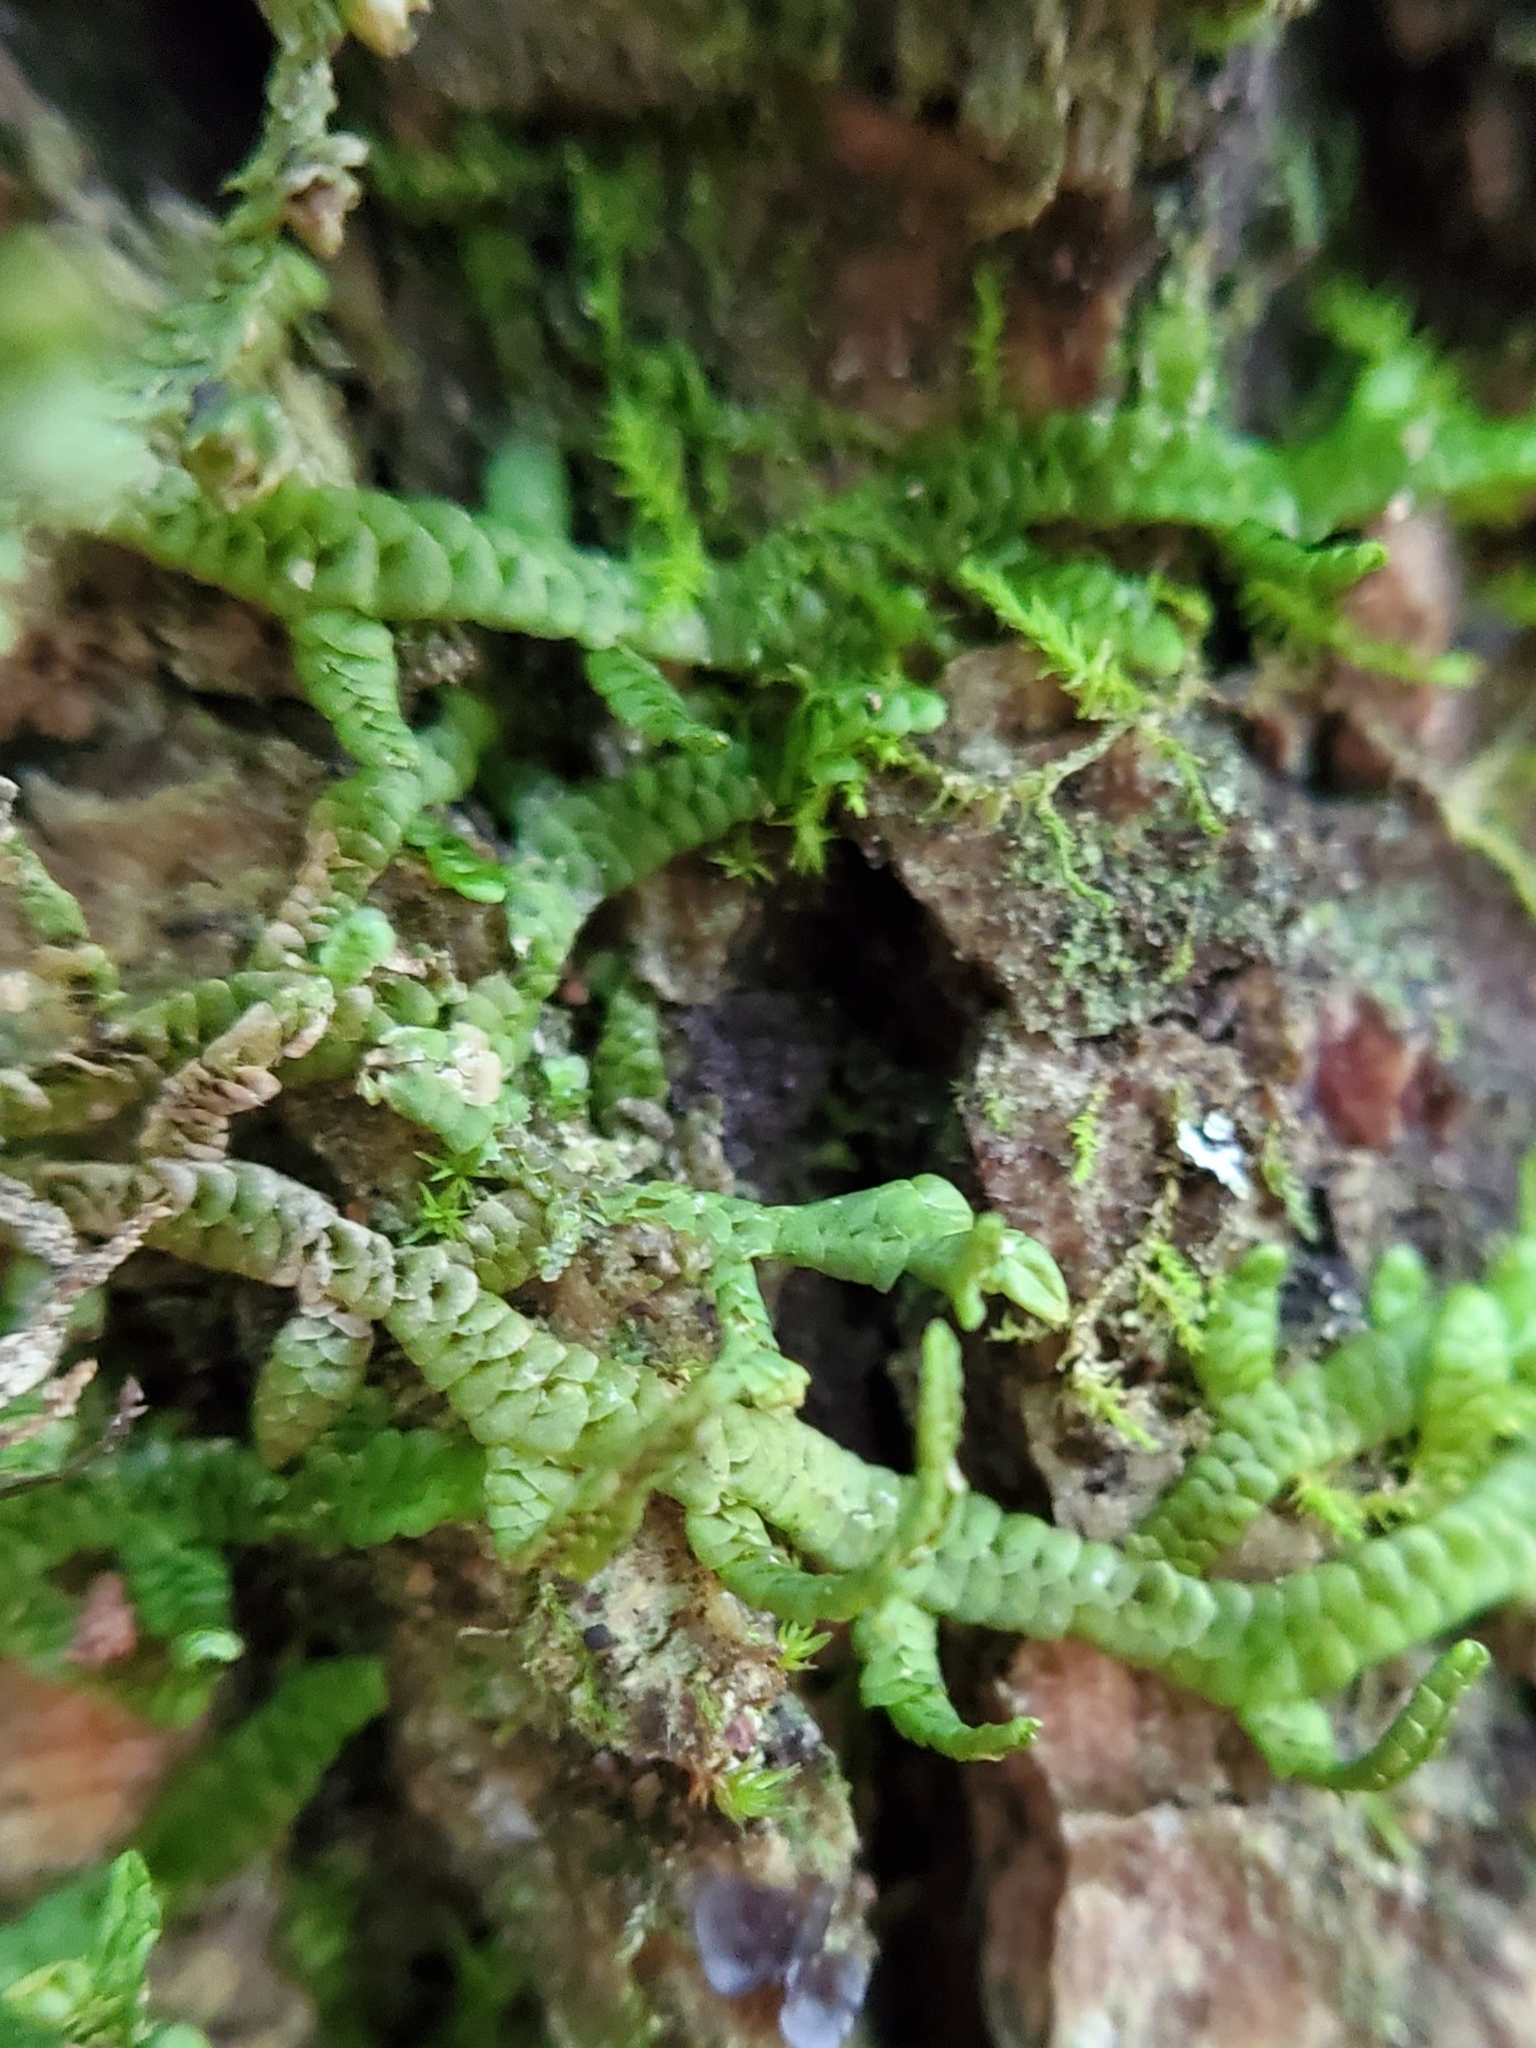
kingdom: Plantae
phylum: Marchantiophyta
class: Jungermanniopsida
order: Porellales
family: Porellaceae
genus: Porella
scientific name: Porella platyphylla
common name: Wall scalewort
